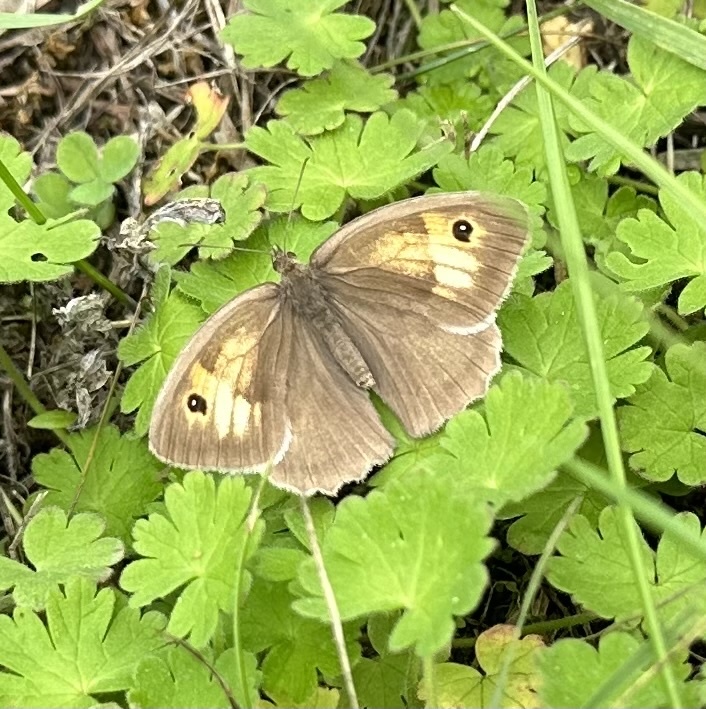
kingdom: Animalia
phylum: Arthropoda
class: Insecta
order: Lepidoptera
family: Nymphalidae
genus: Maniola
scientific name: Maniola jurtina
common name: Meadow brown
